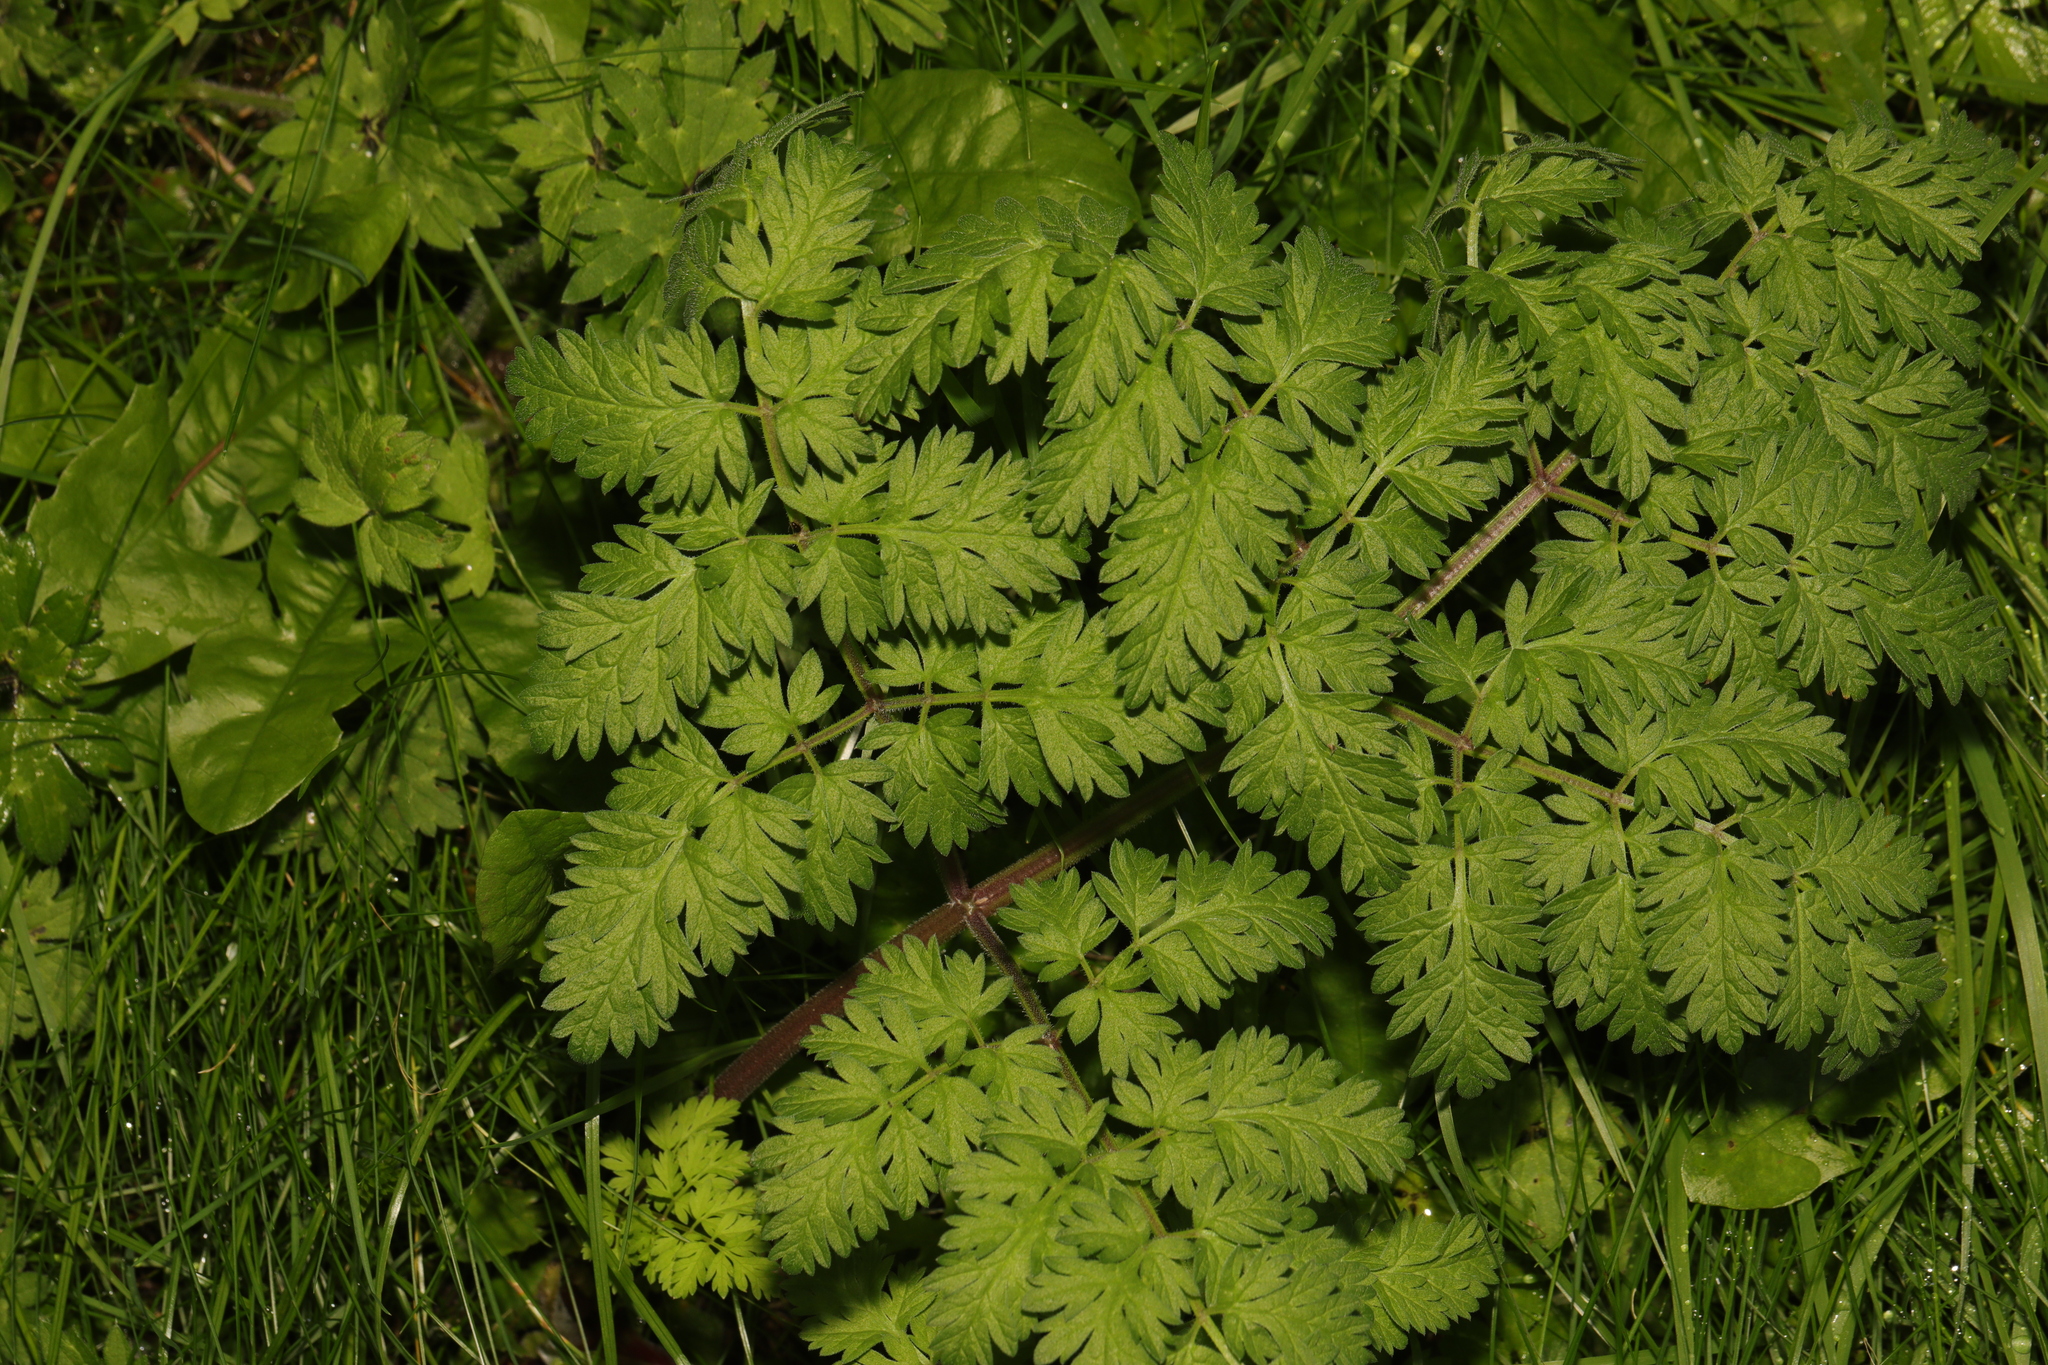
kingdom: Plantae
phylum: Tracheophyta
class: Magnoliopsida
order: Apiales
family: Apiaceae
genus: Anthriscus
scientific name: Anthriscus sylvestris
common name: Cow parsley
